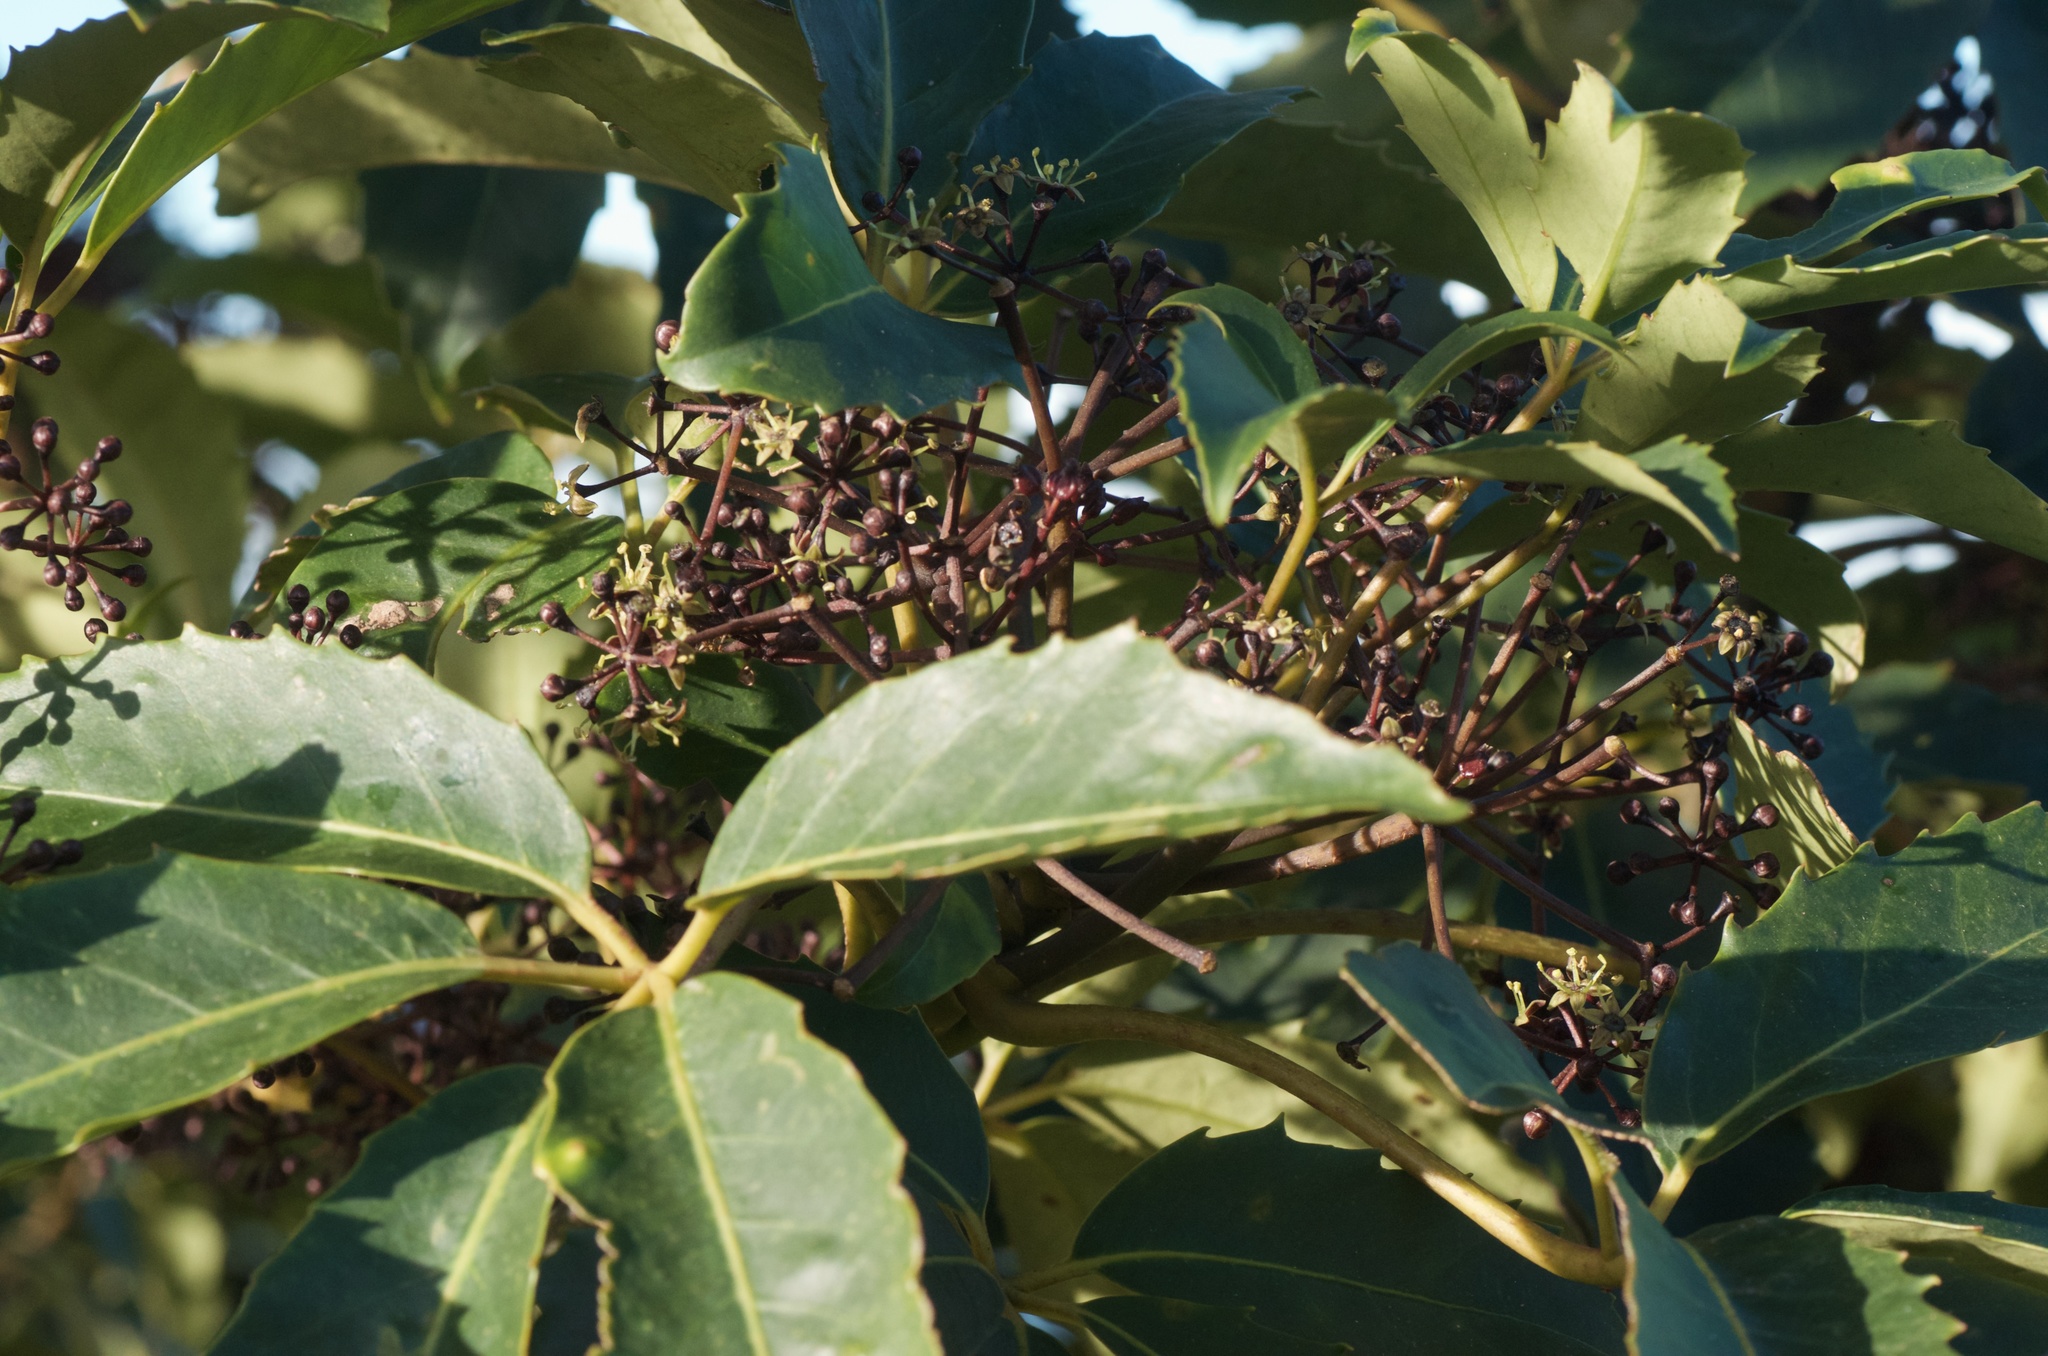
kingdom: Plantae
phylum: Tracheophyta
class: Magnoliopsida
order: Apiales
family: Araliaceae
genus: Neopanax
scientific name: Neopanax arboreus
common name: Five-fingers
